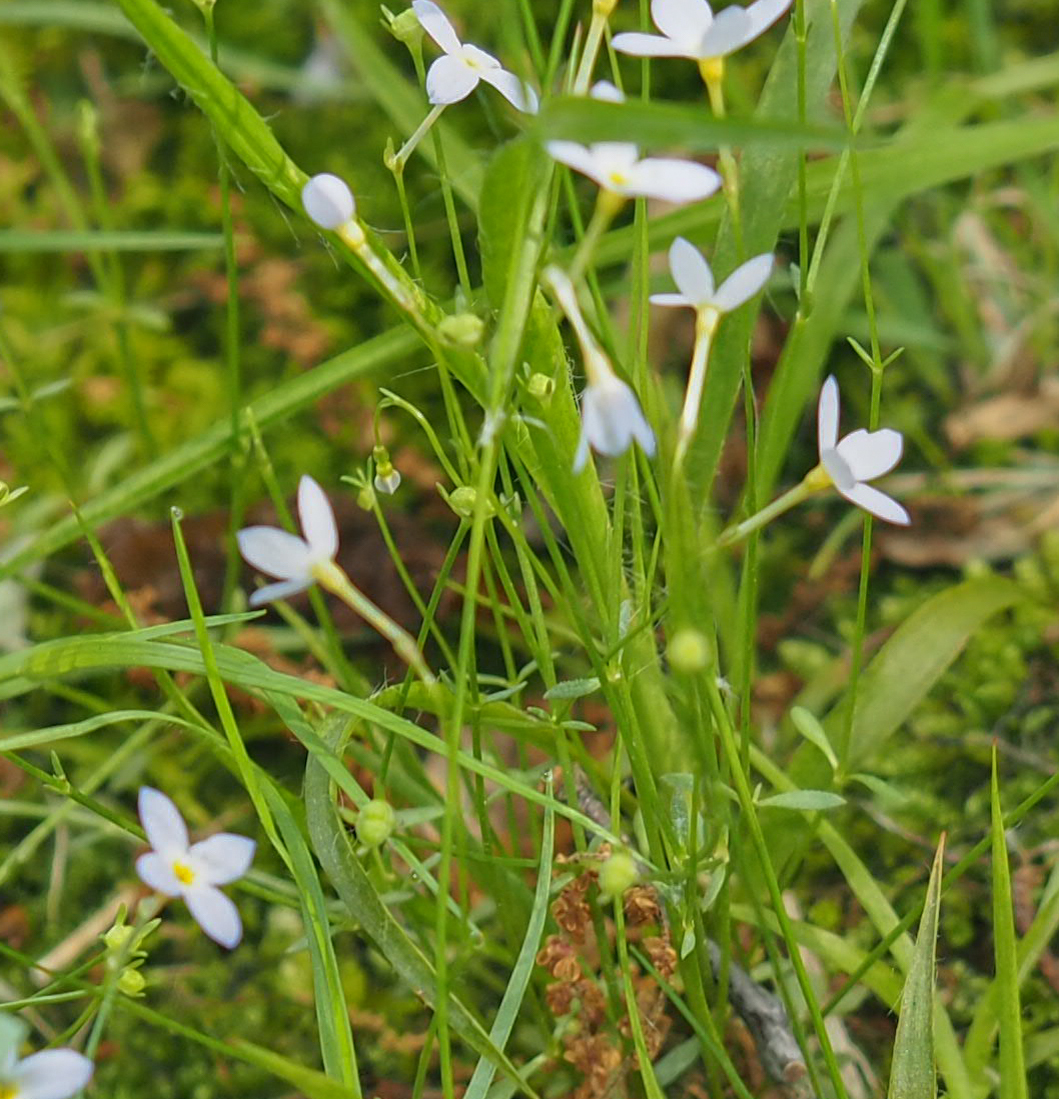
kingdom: Plantae
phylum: Tracheophyta
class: Magnoliopsida
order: Gentianales
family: Rubiaceae
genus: Houstonia
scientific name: Houstonia caerulea
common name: Bluets
